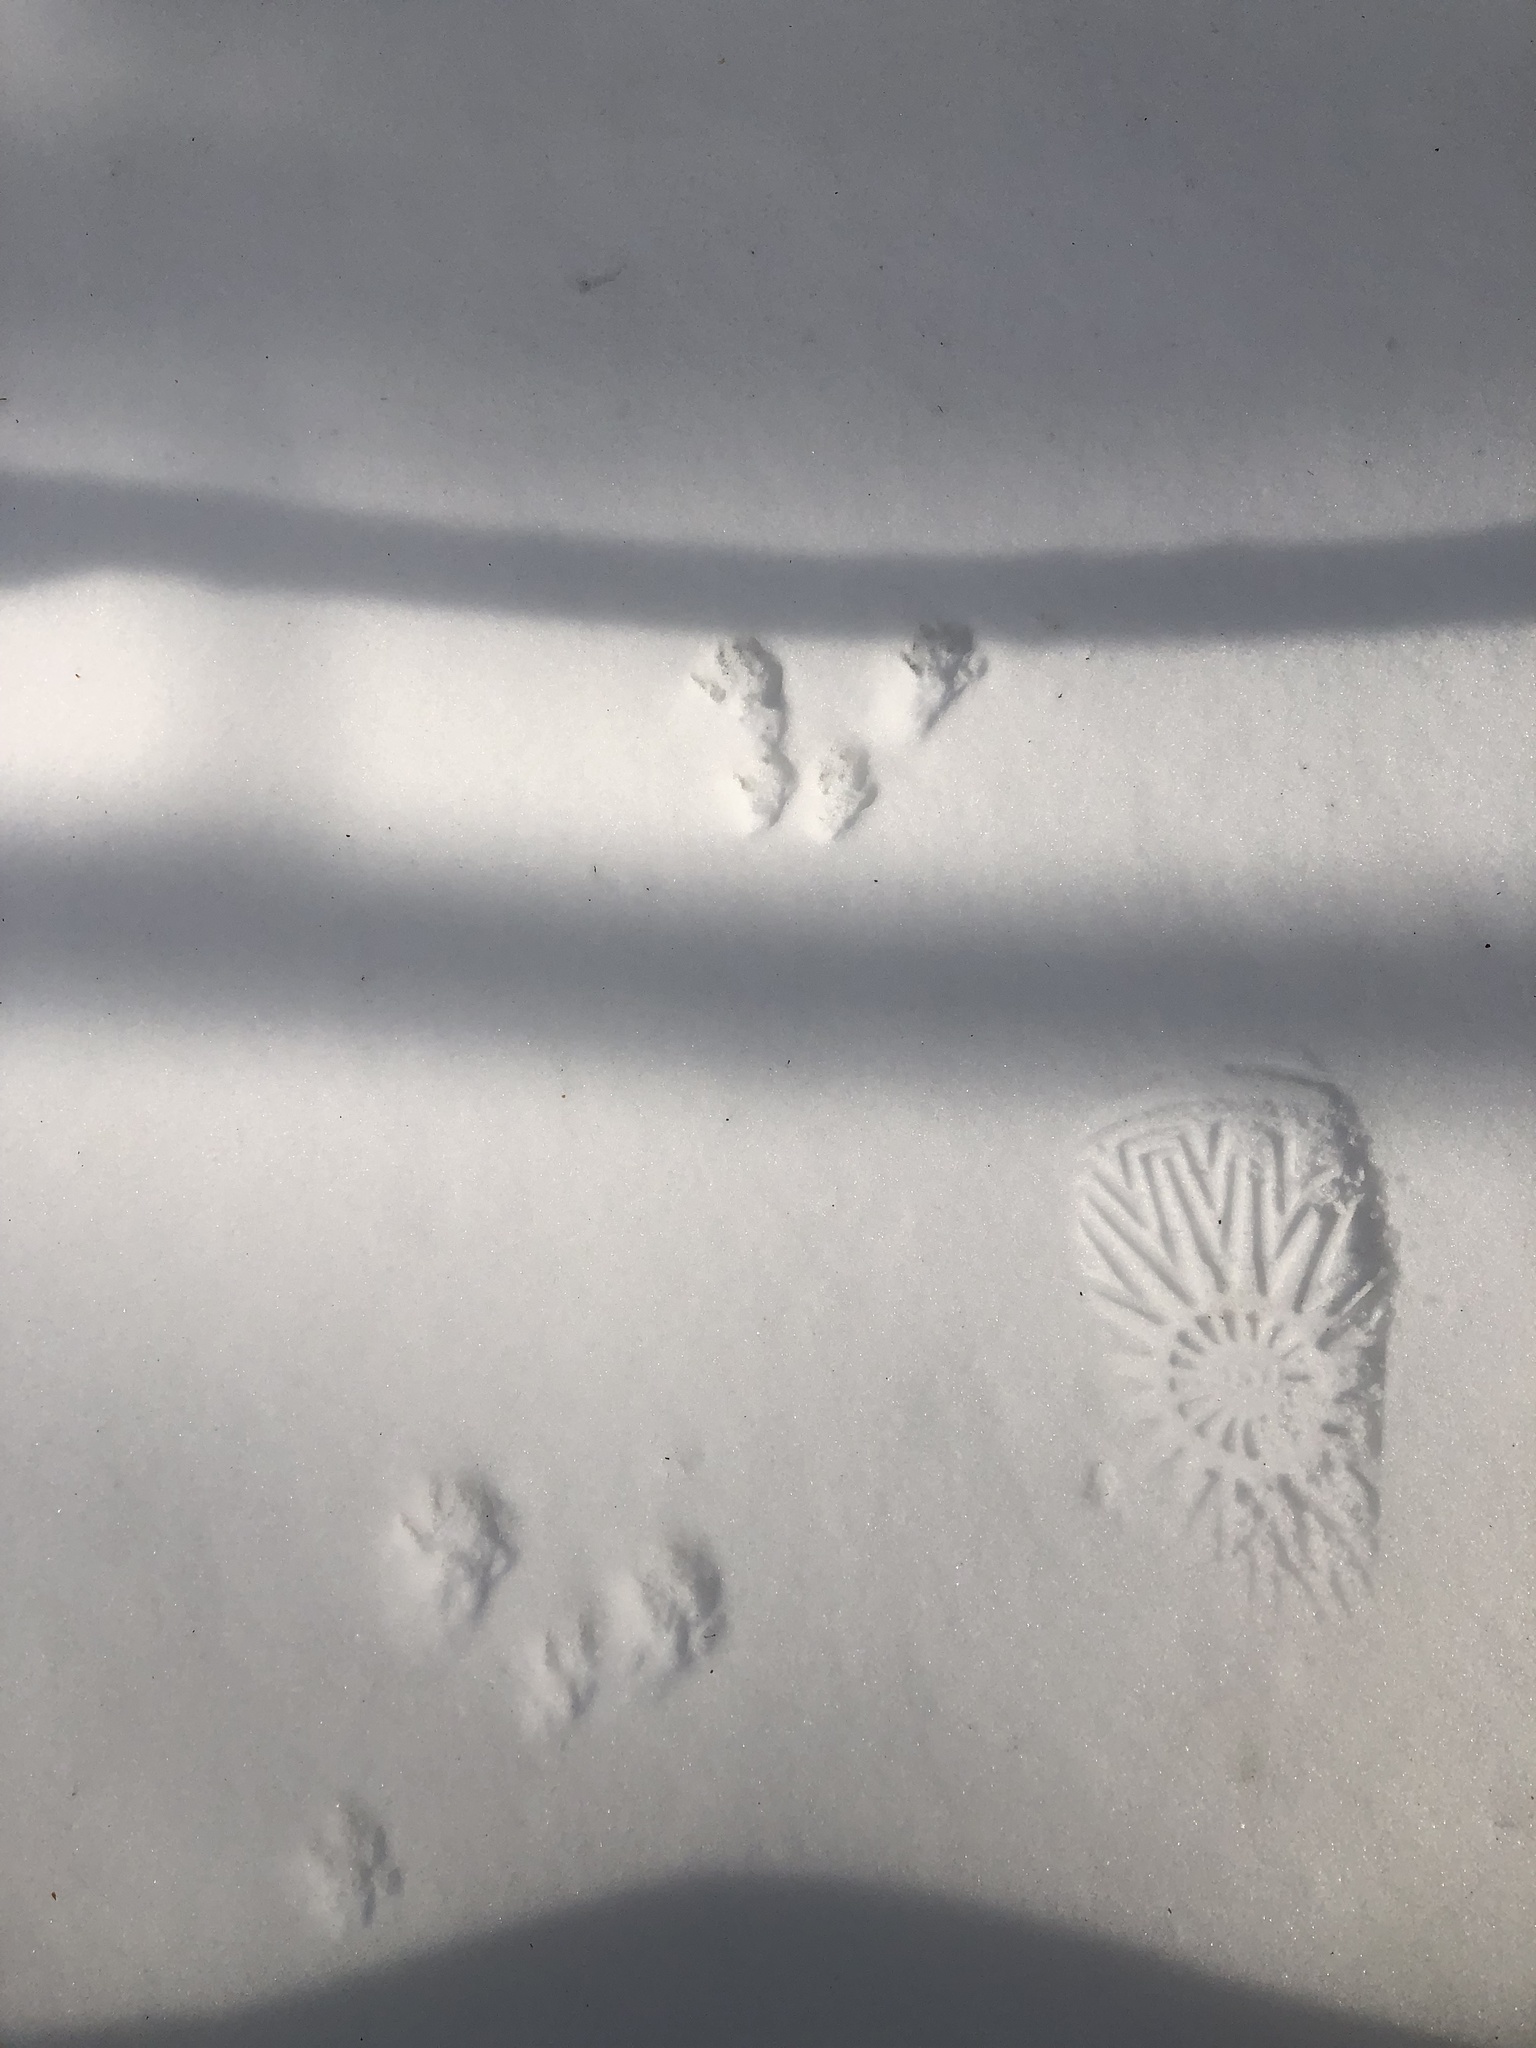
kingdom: Animalia
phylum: Chordata
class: Mammalia
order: Rodentia
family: Sciuridae
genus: Sciurus
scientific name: Sciurus carolinensis
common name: Eastern gray squirrel
